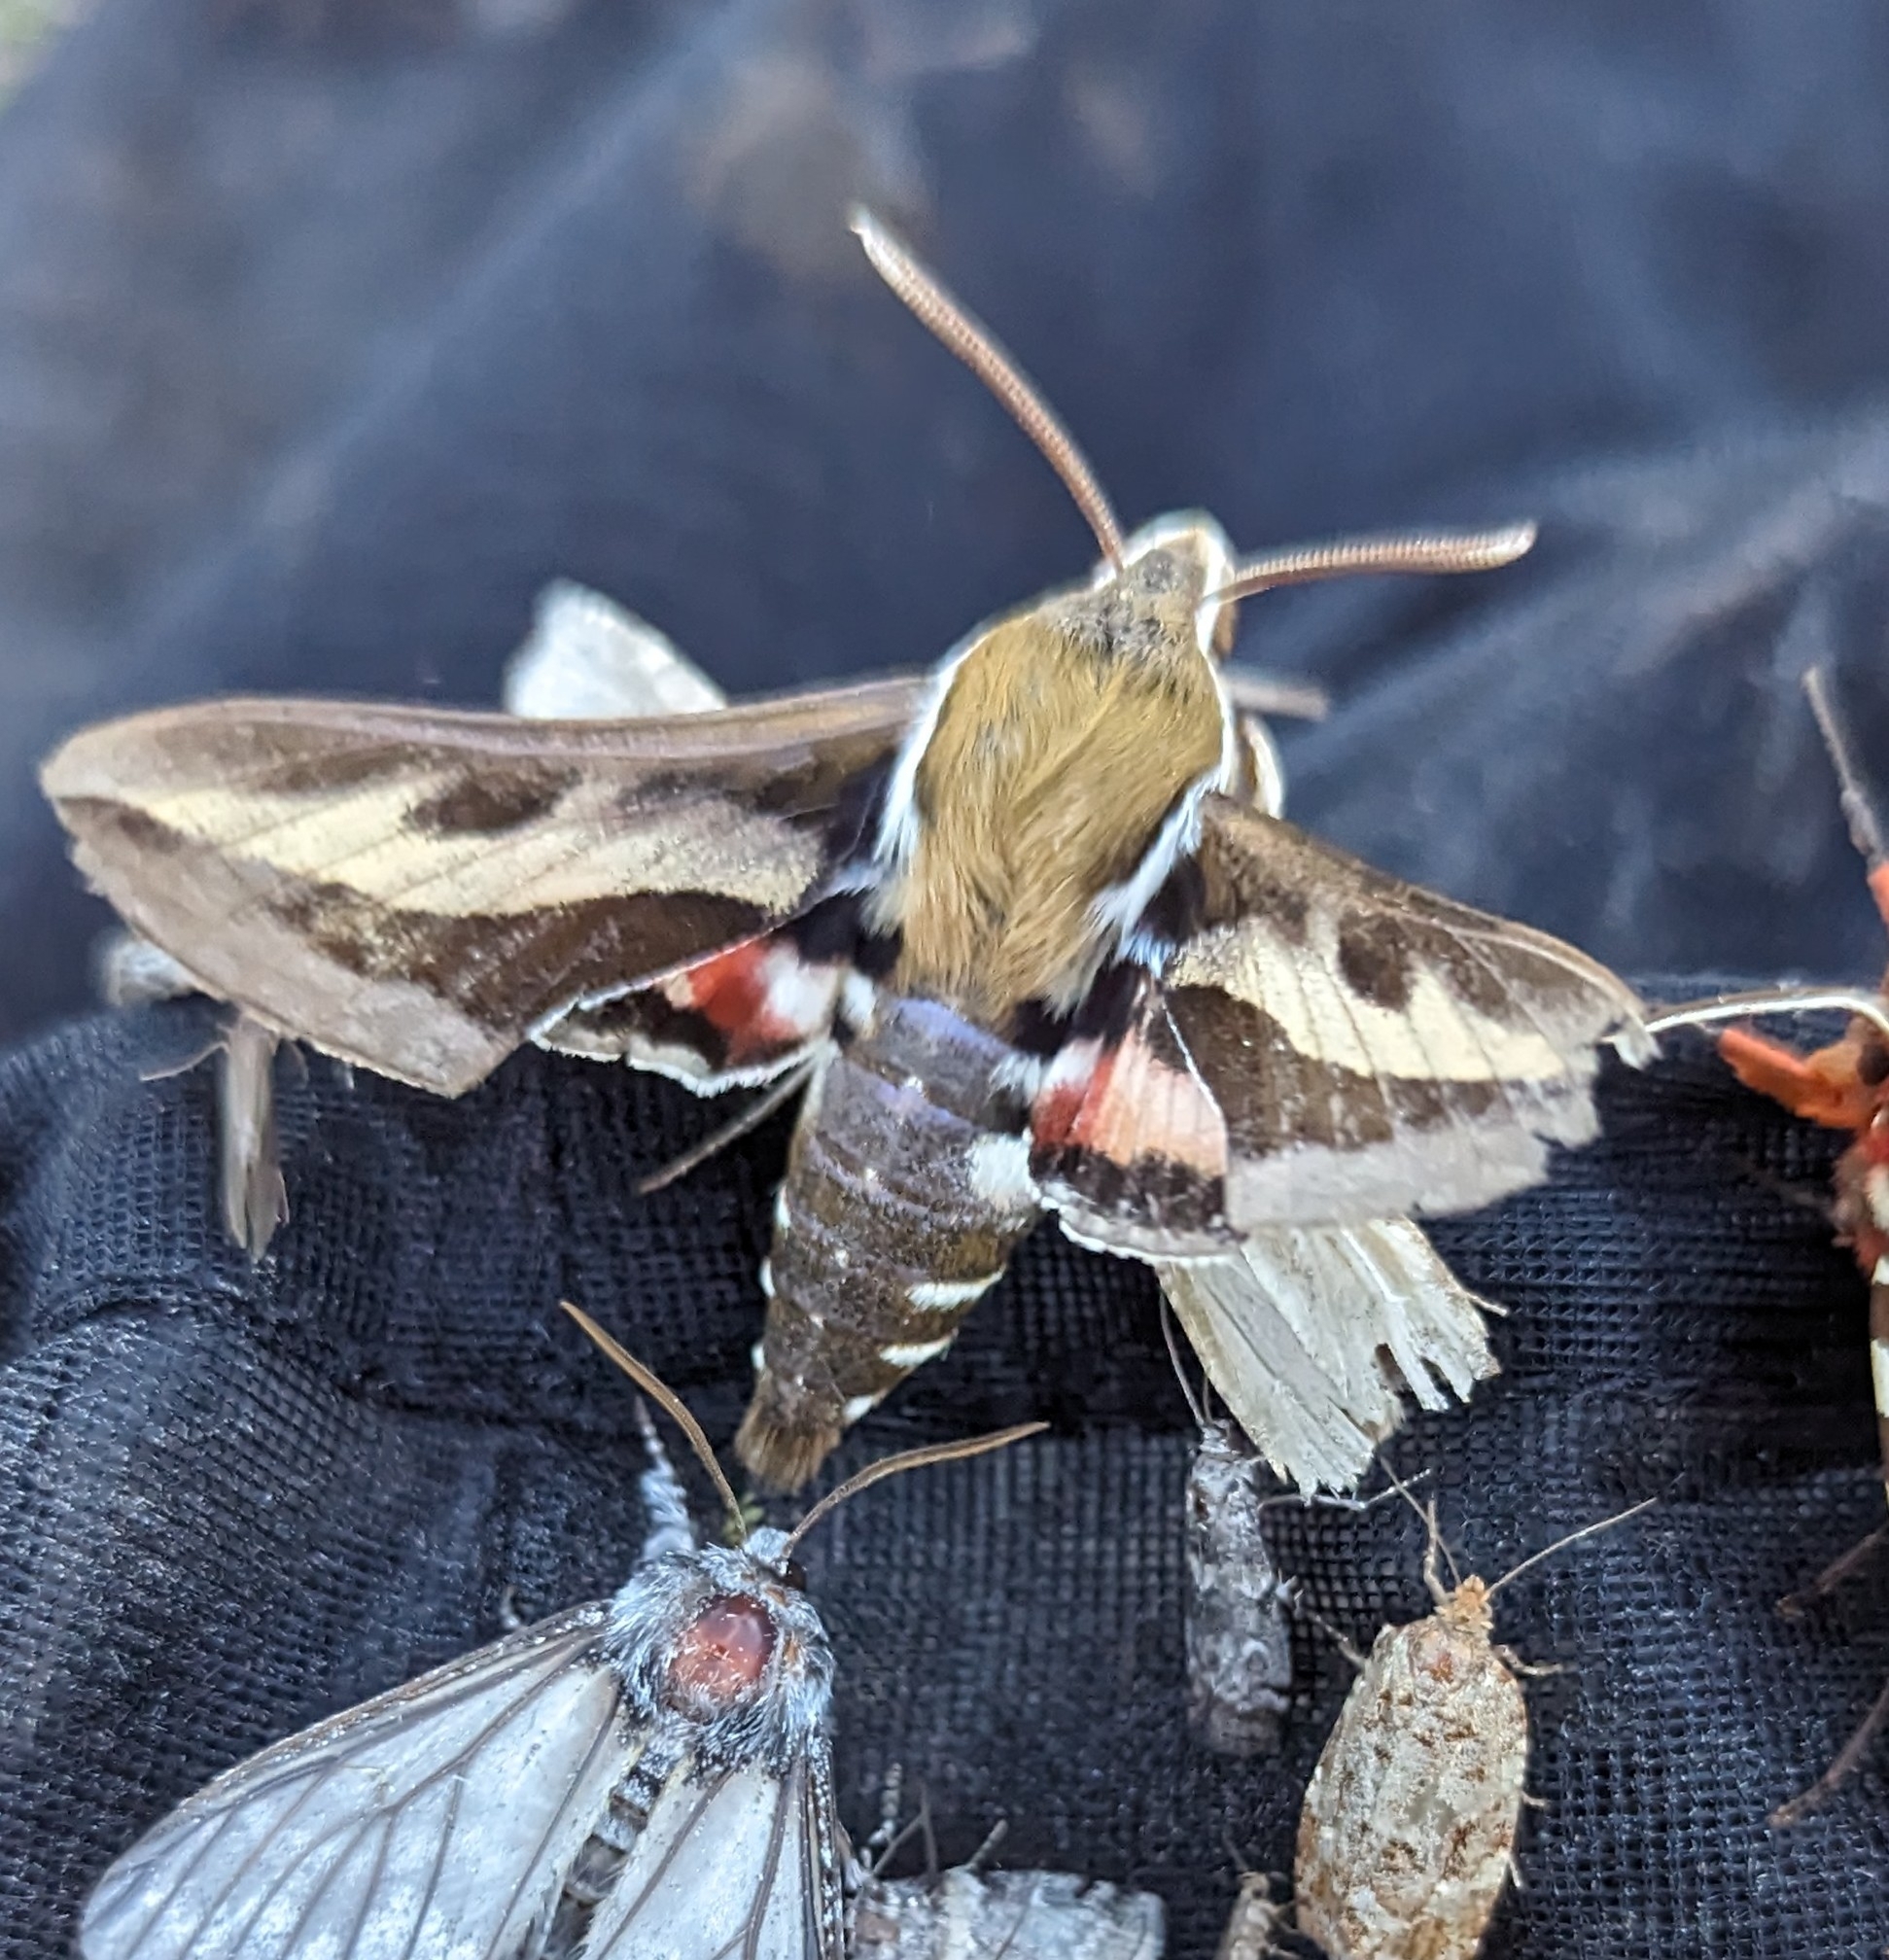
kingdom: Animalia
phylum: Arthropoda
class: Insecta
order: Lepidoptera
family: Sphingidae
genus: Hyles
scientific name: Hyles gallii
